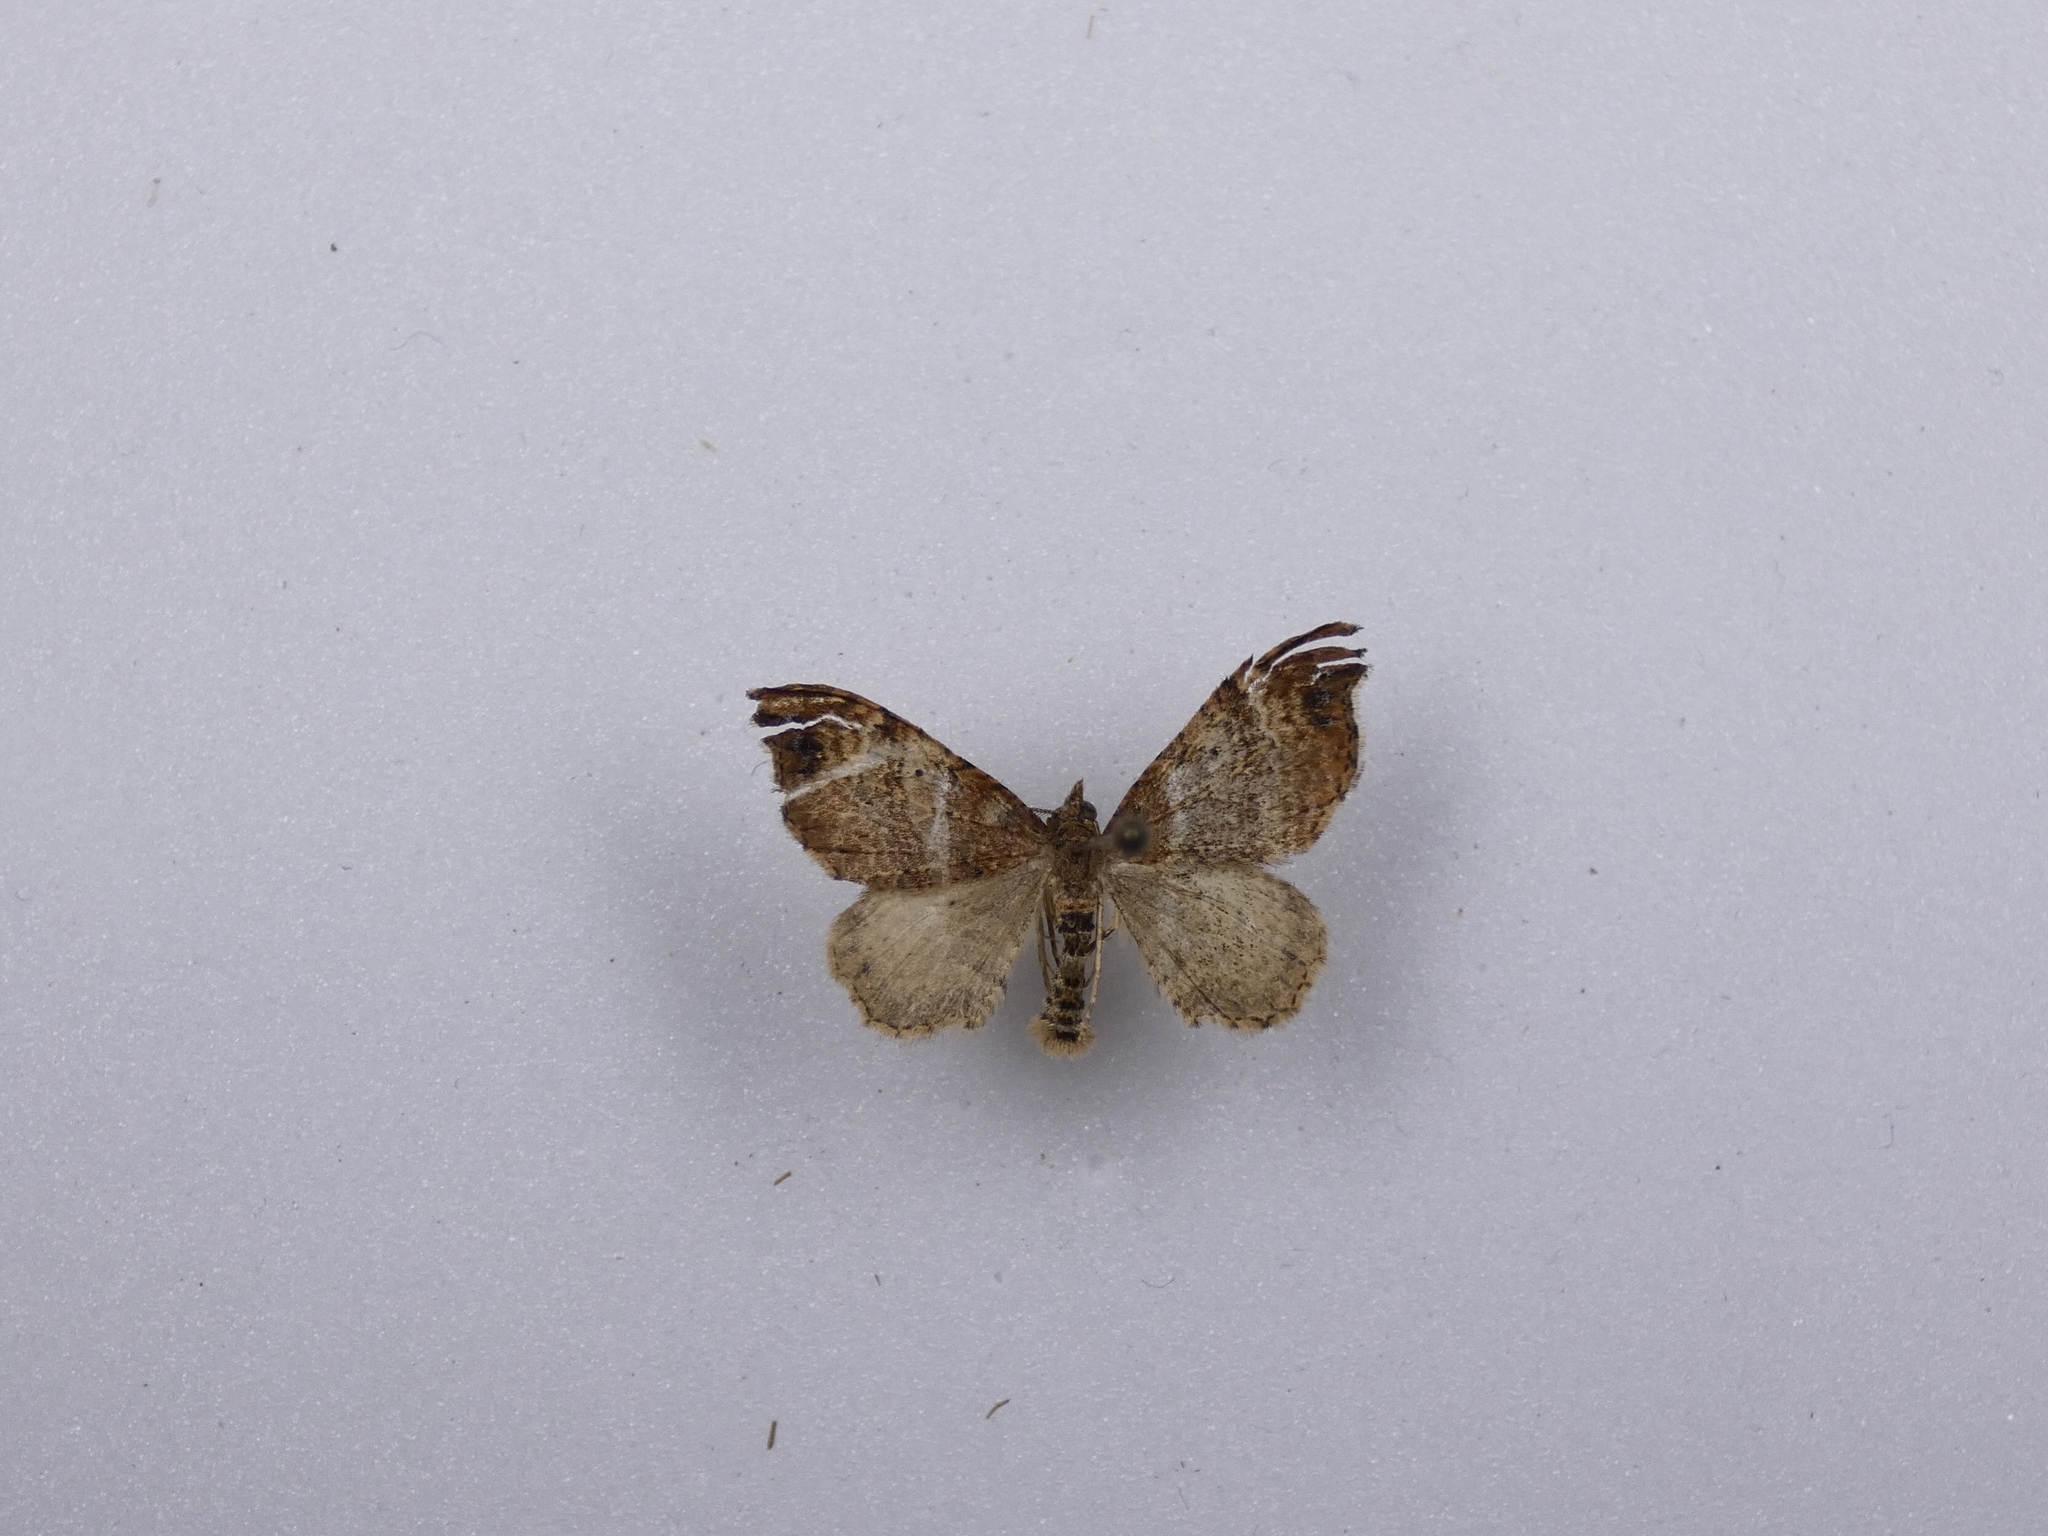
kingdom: Animalia
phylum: Arthropoda
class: Insecta
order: Lepidoptera
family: Geometridae
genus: Homodotis
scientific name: Homodotis megaspilata
